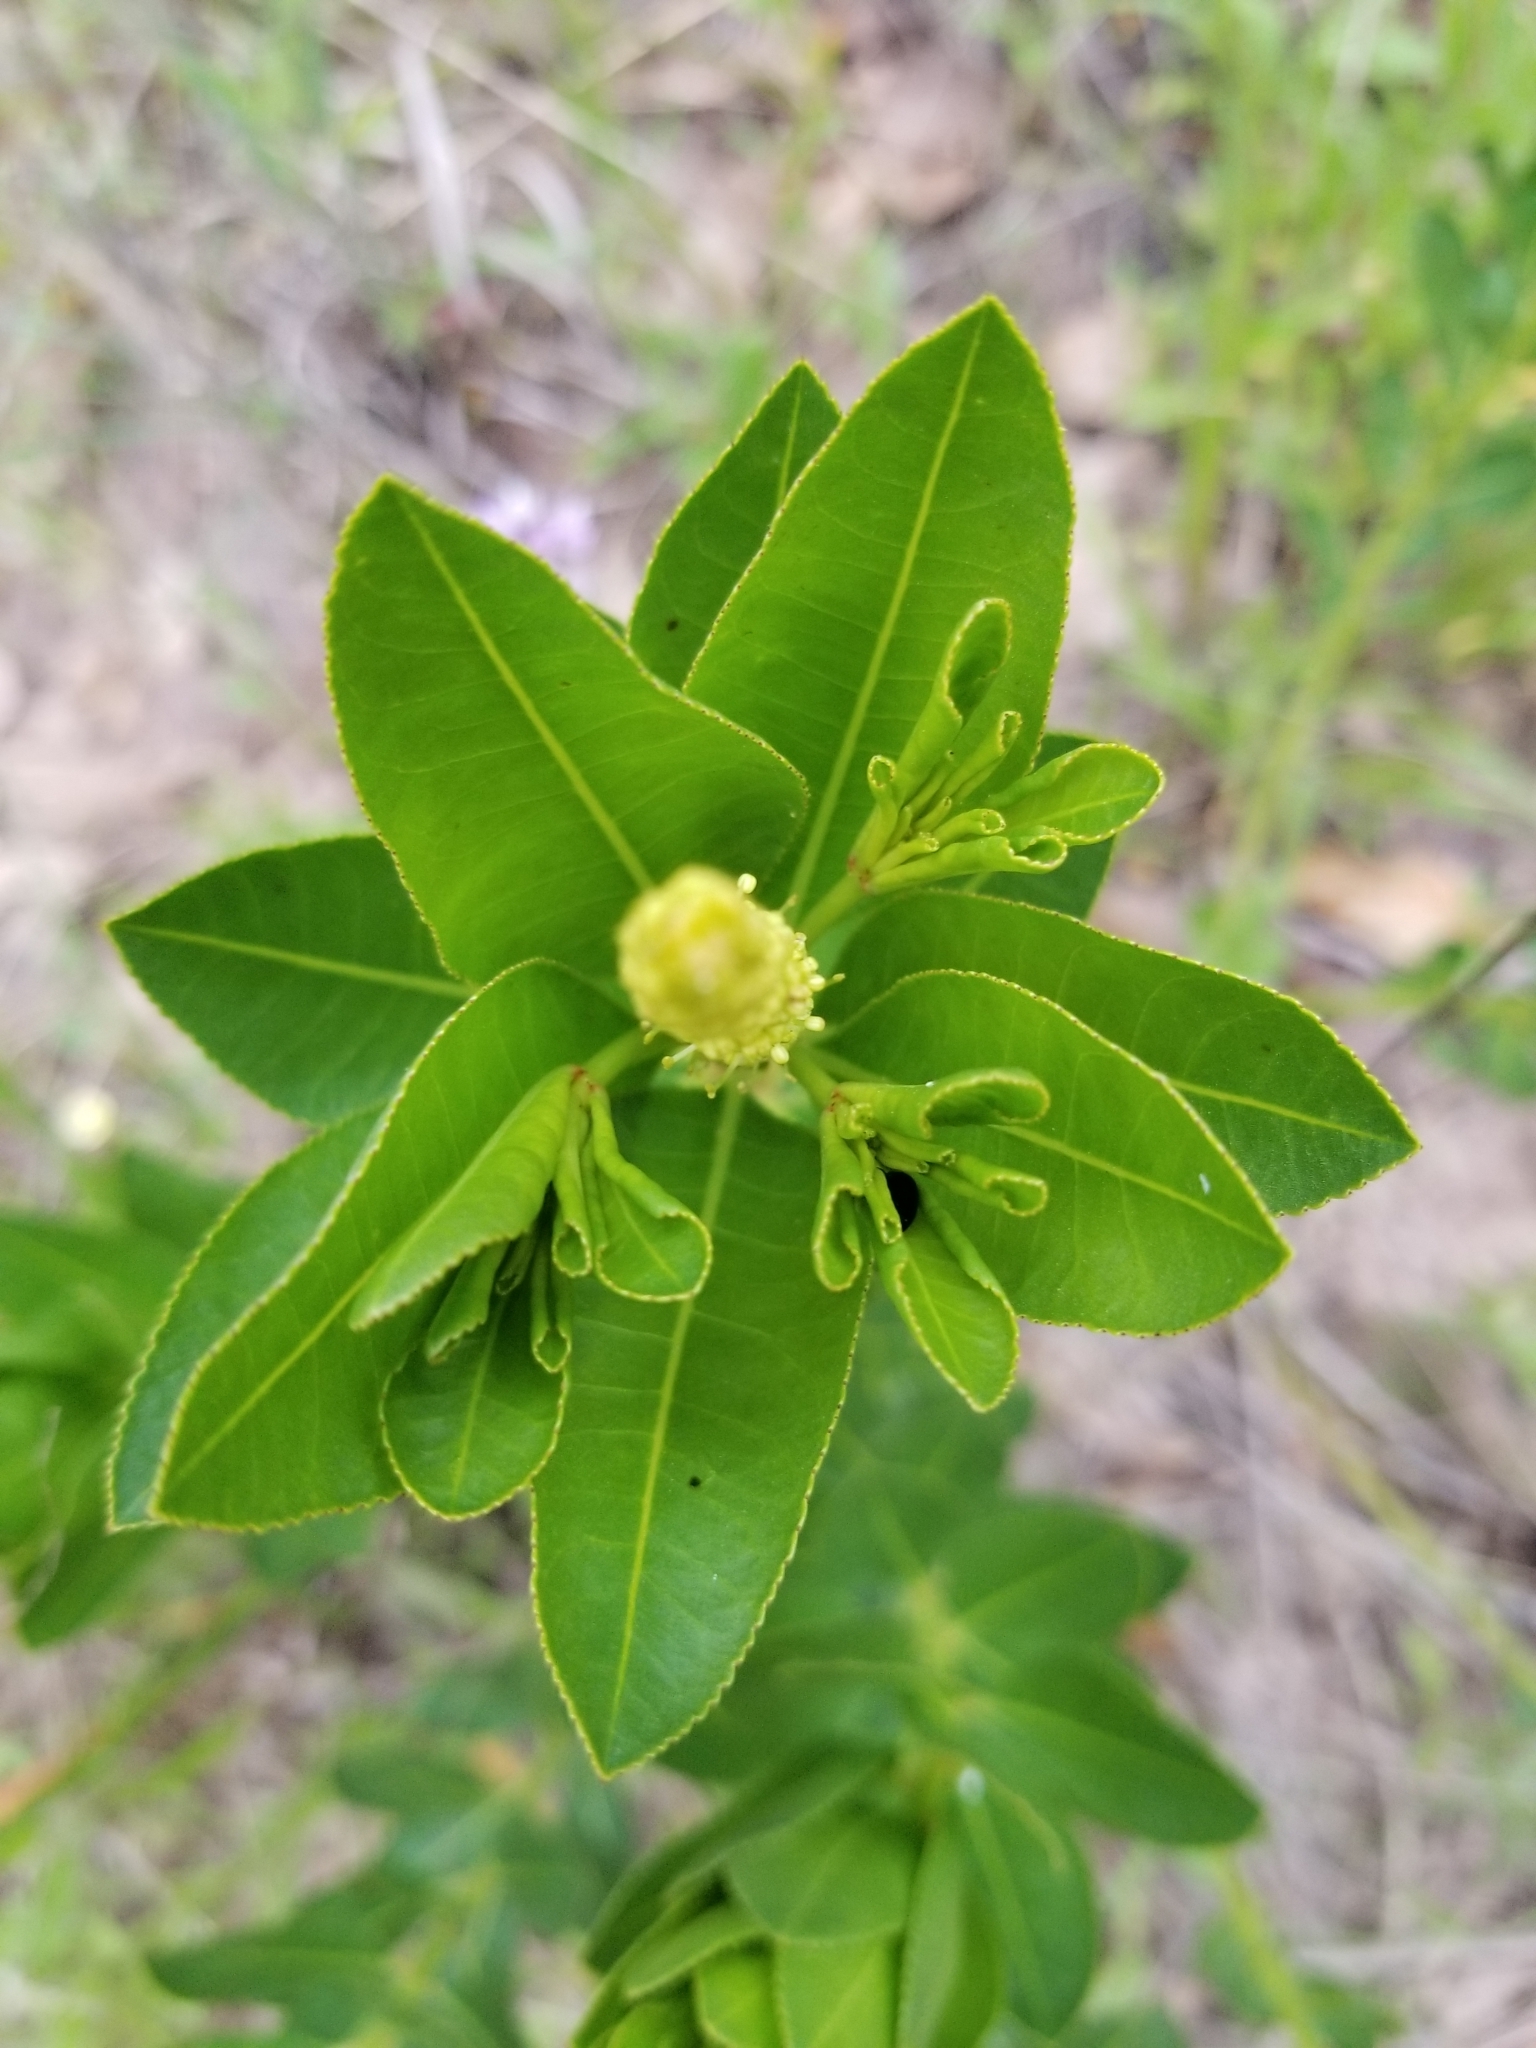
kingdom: Plantae
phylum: Tracheophyta
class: Magnoliopsida
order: Malpighiales
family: Euphorbiaceae
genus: Stillingia
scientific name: Stillingia sylvatica
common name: Queen's-delight
